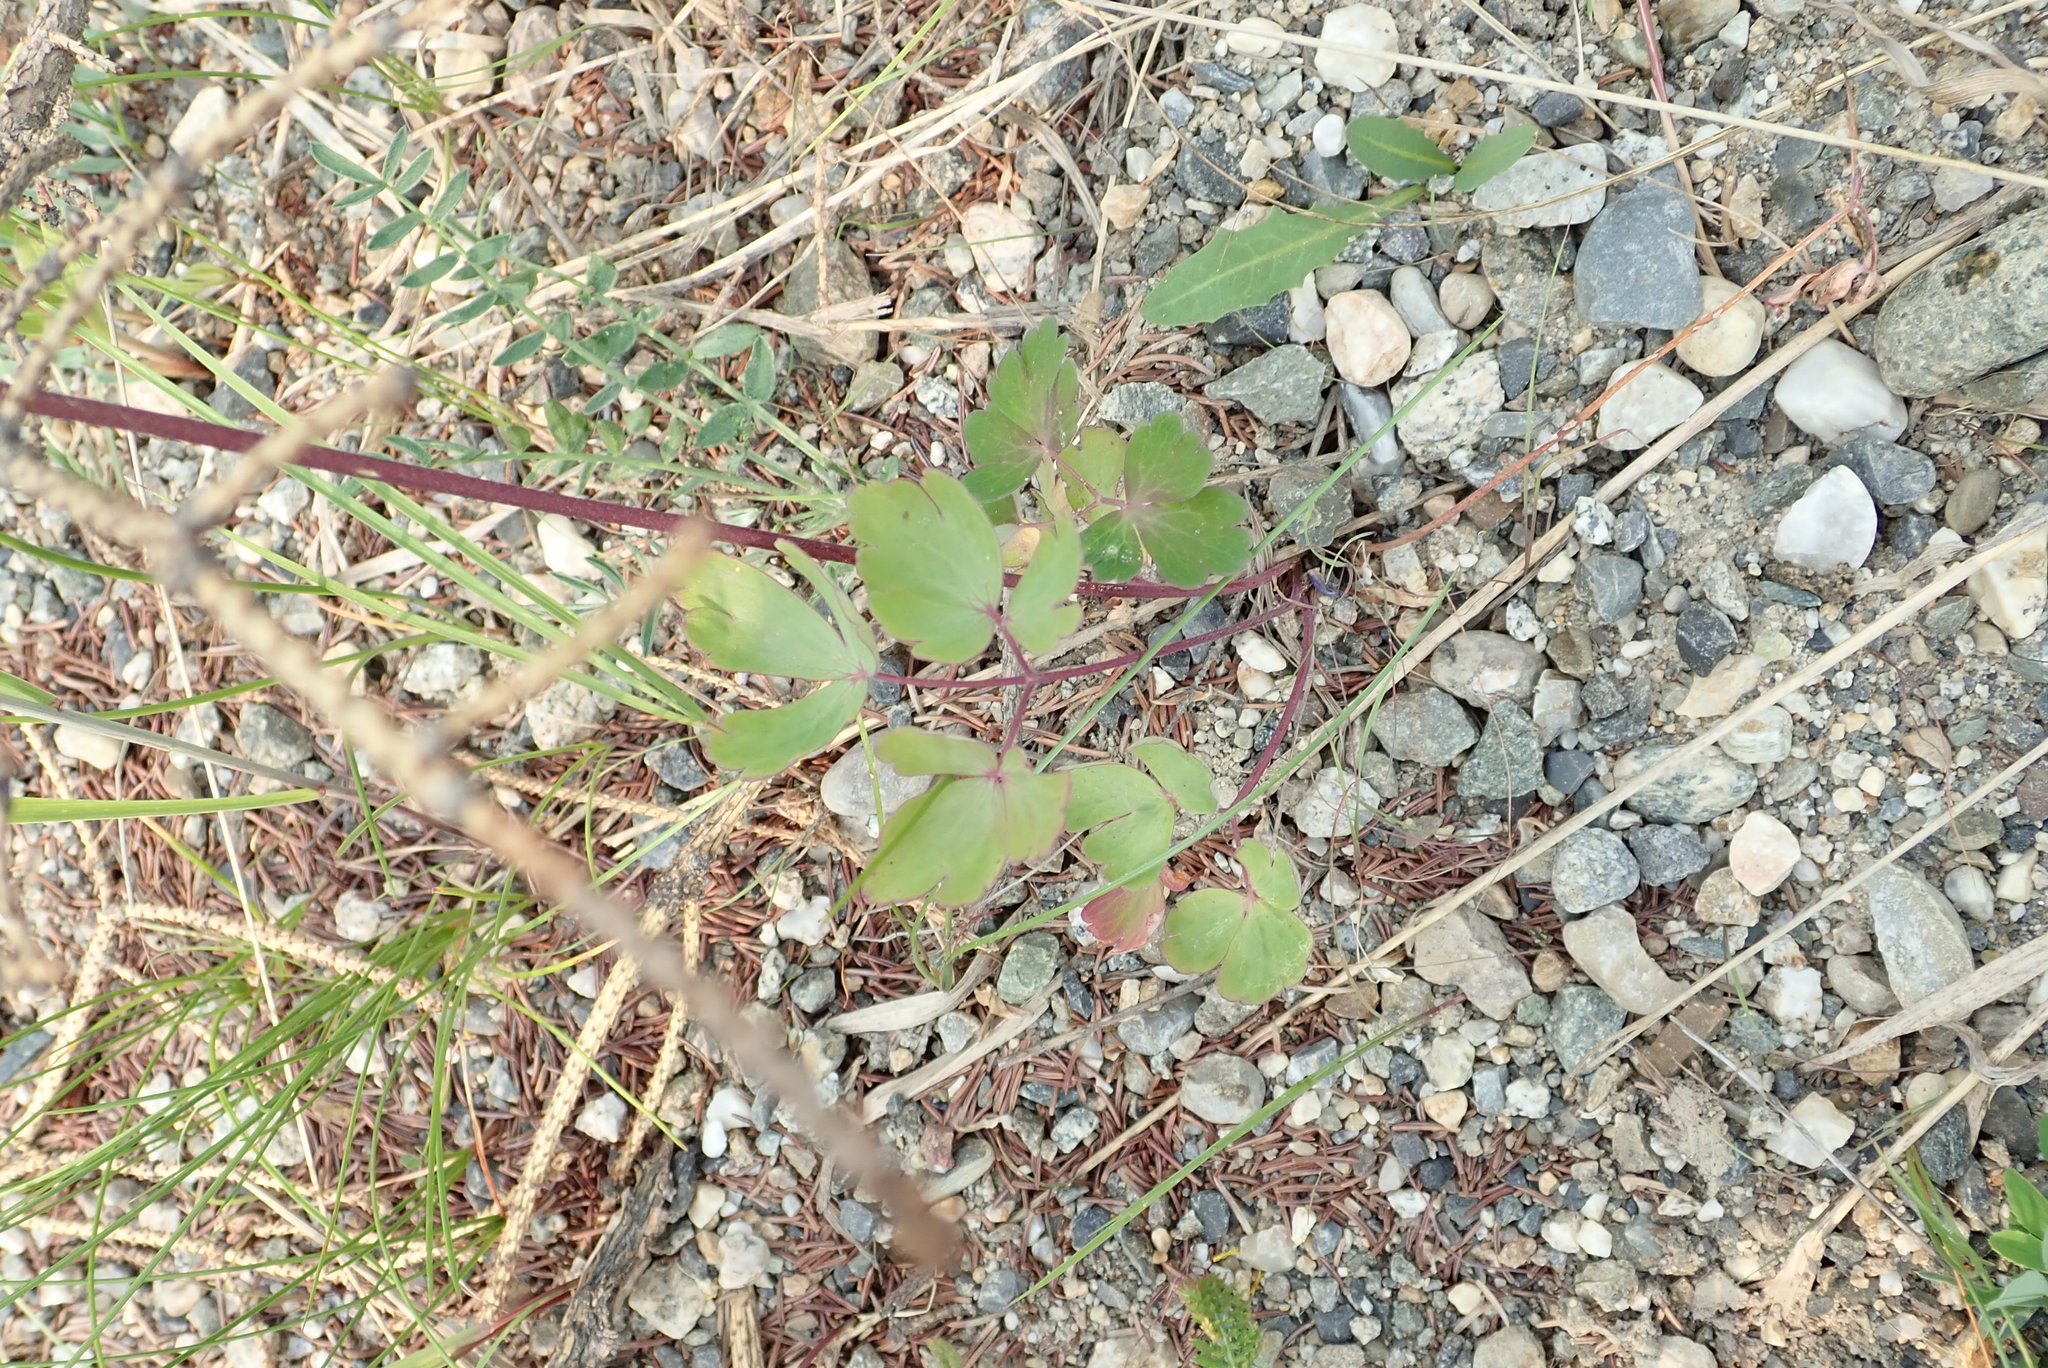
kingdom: Plantae
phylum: Tracheophyta
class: Magnoliopsida
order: Ranunculales
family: Ranunculaceae
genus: Aquilegia
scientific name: Aquilegia brevistyla
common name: Yukon columbine
